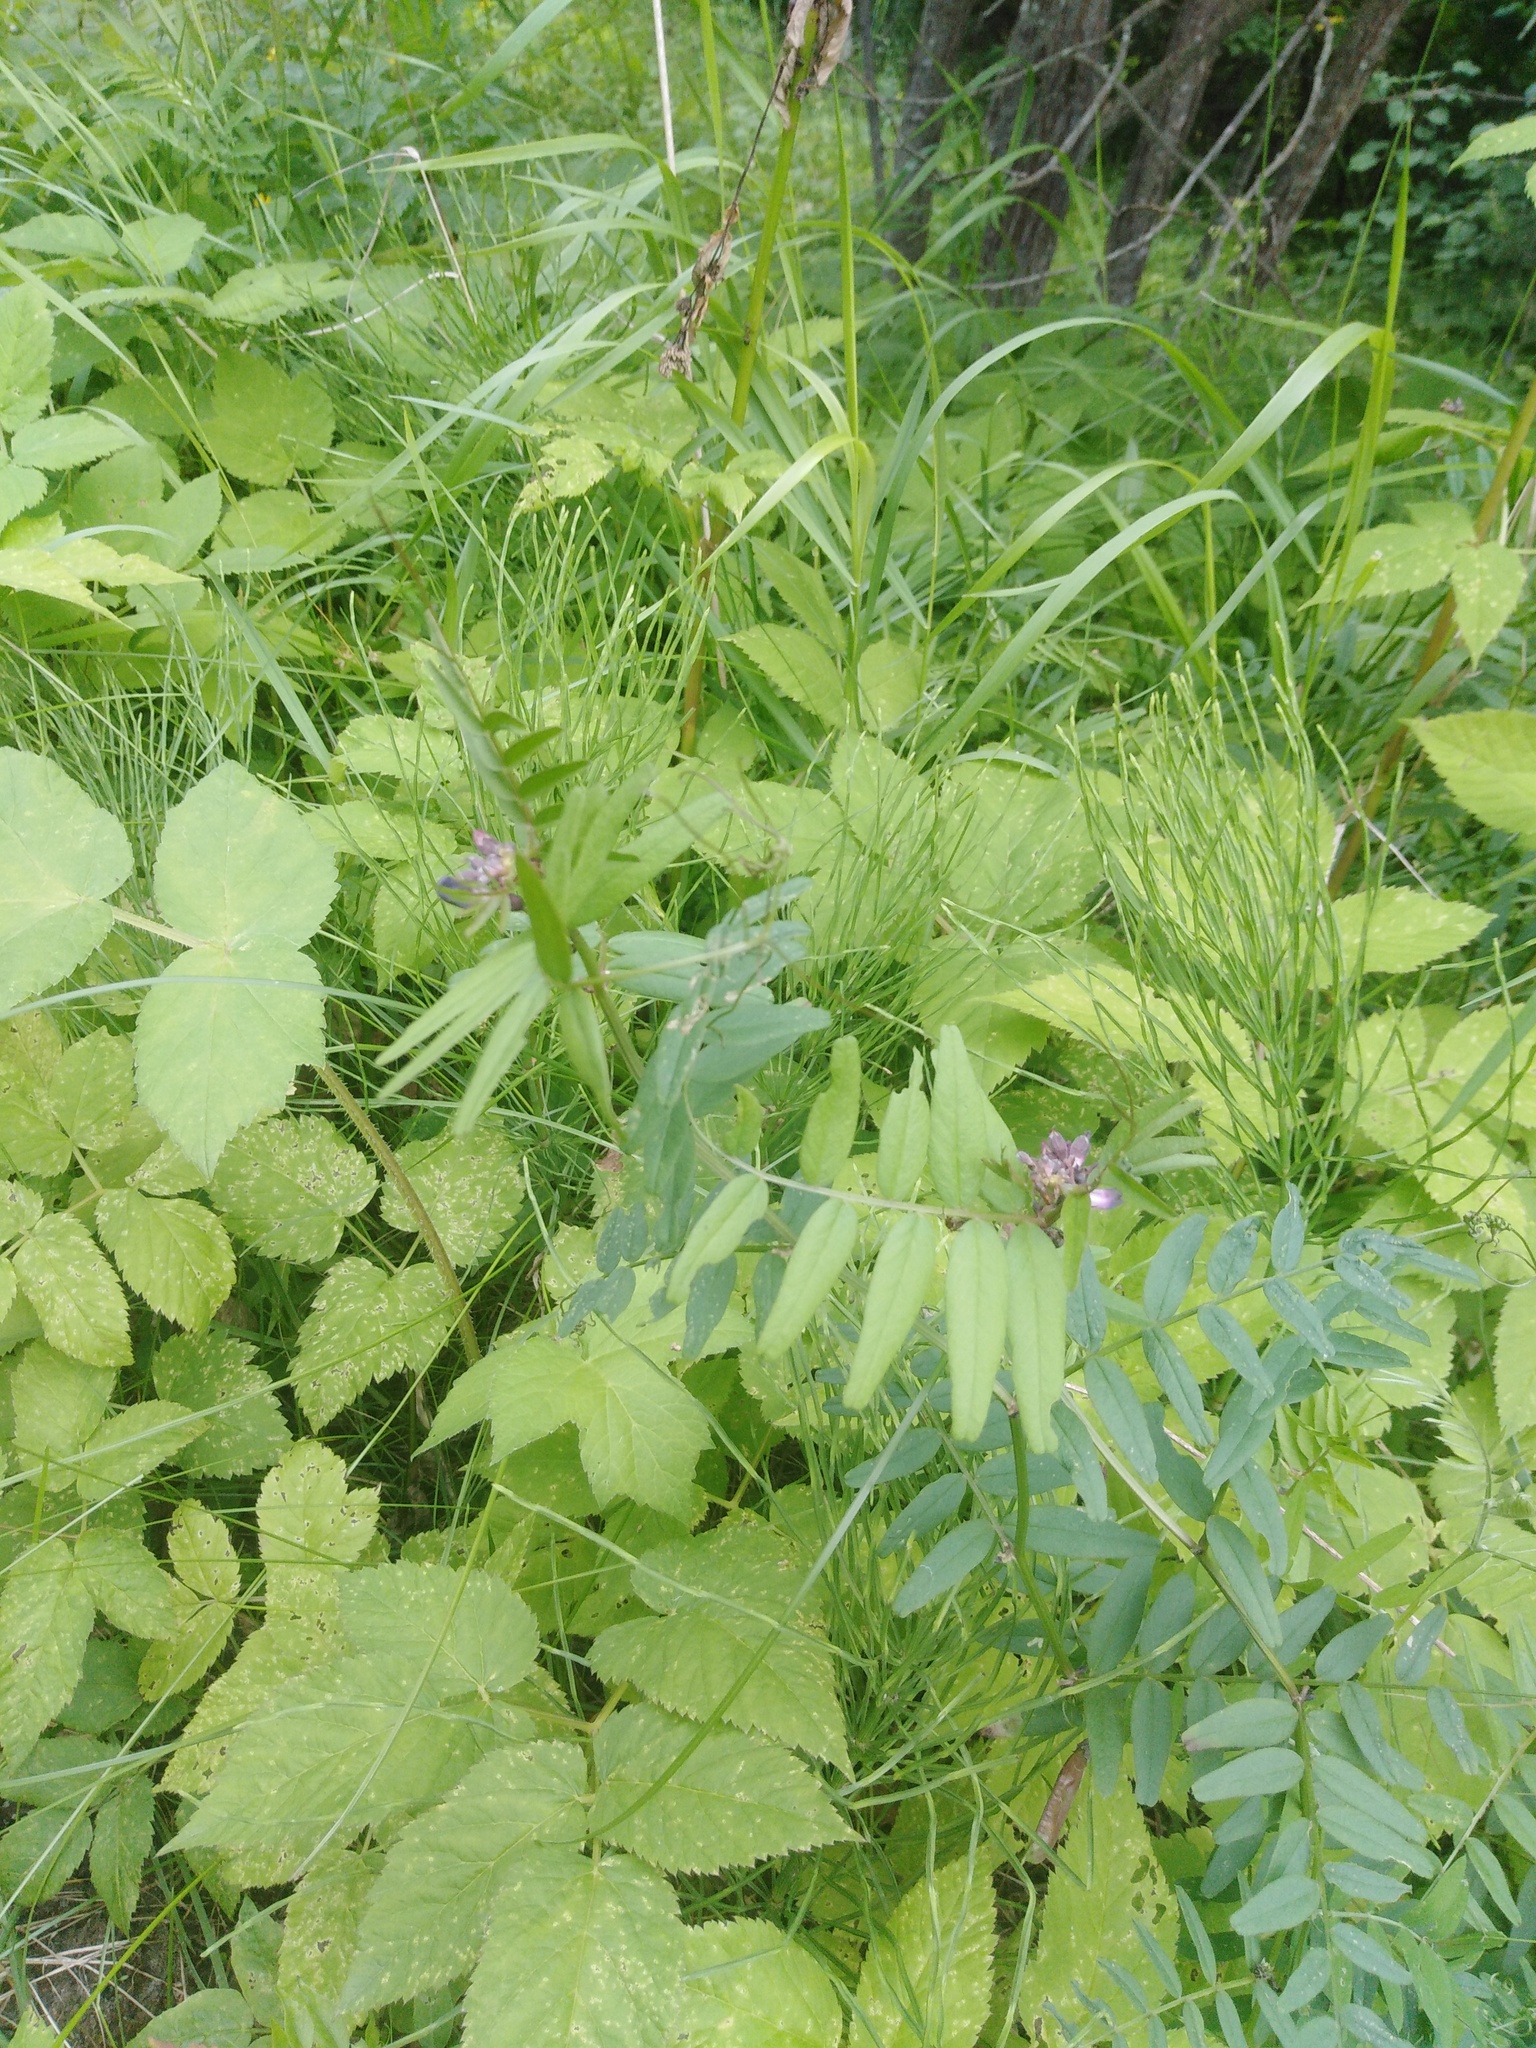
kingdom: Plantae
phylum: Tracheophyta
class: Magnoliopsida
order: Fabales
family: Fabaceae
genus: Vicia
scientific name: Vicia sepium
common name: Bush vetch
